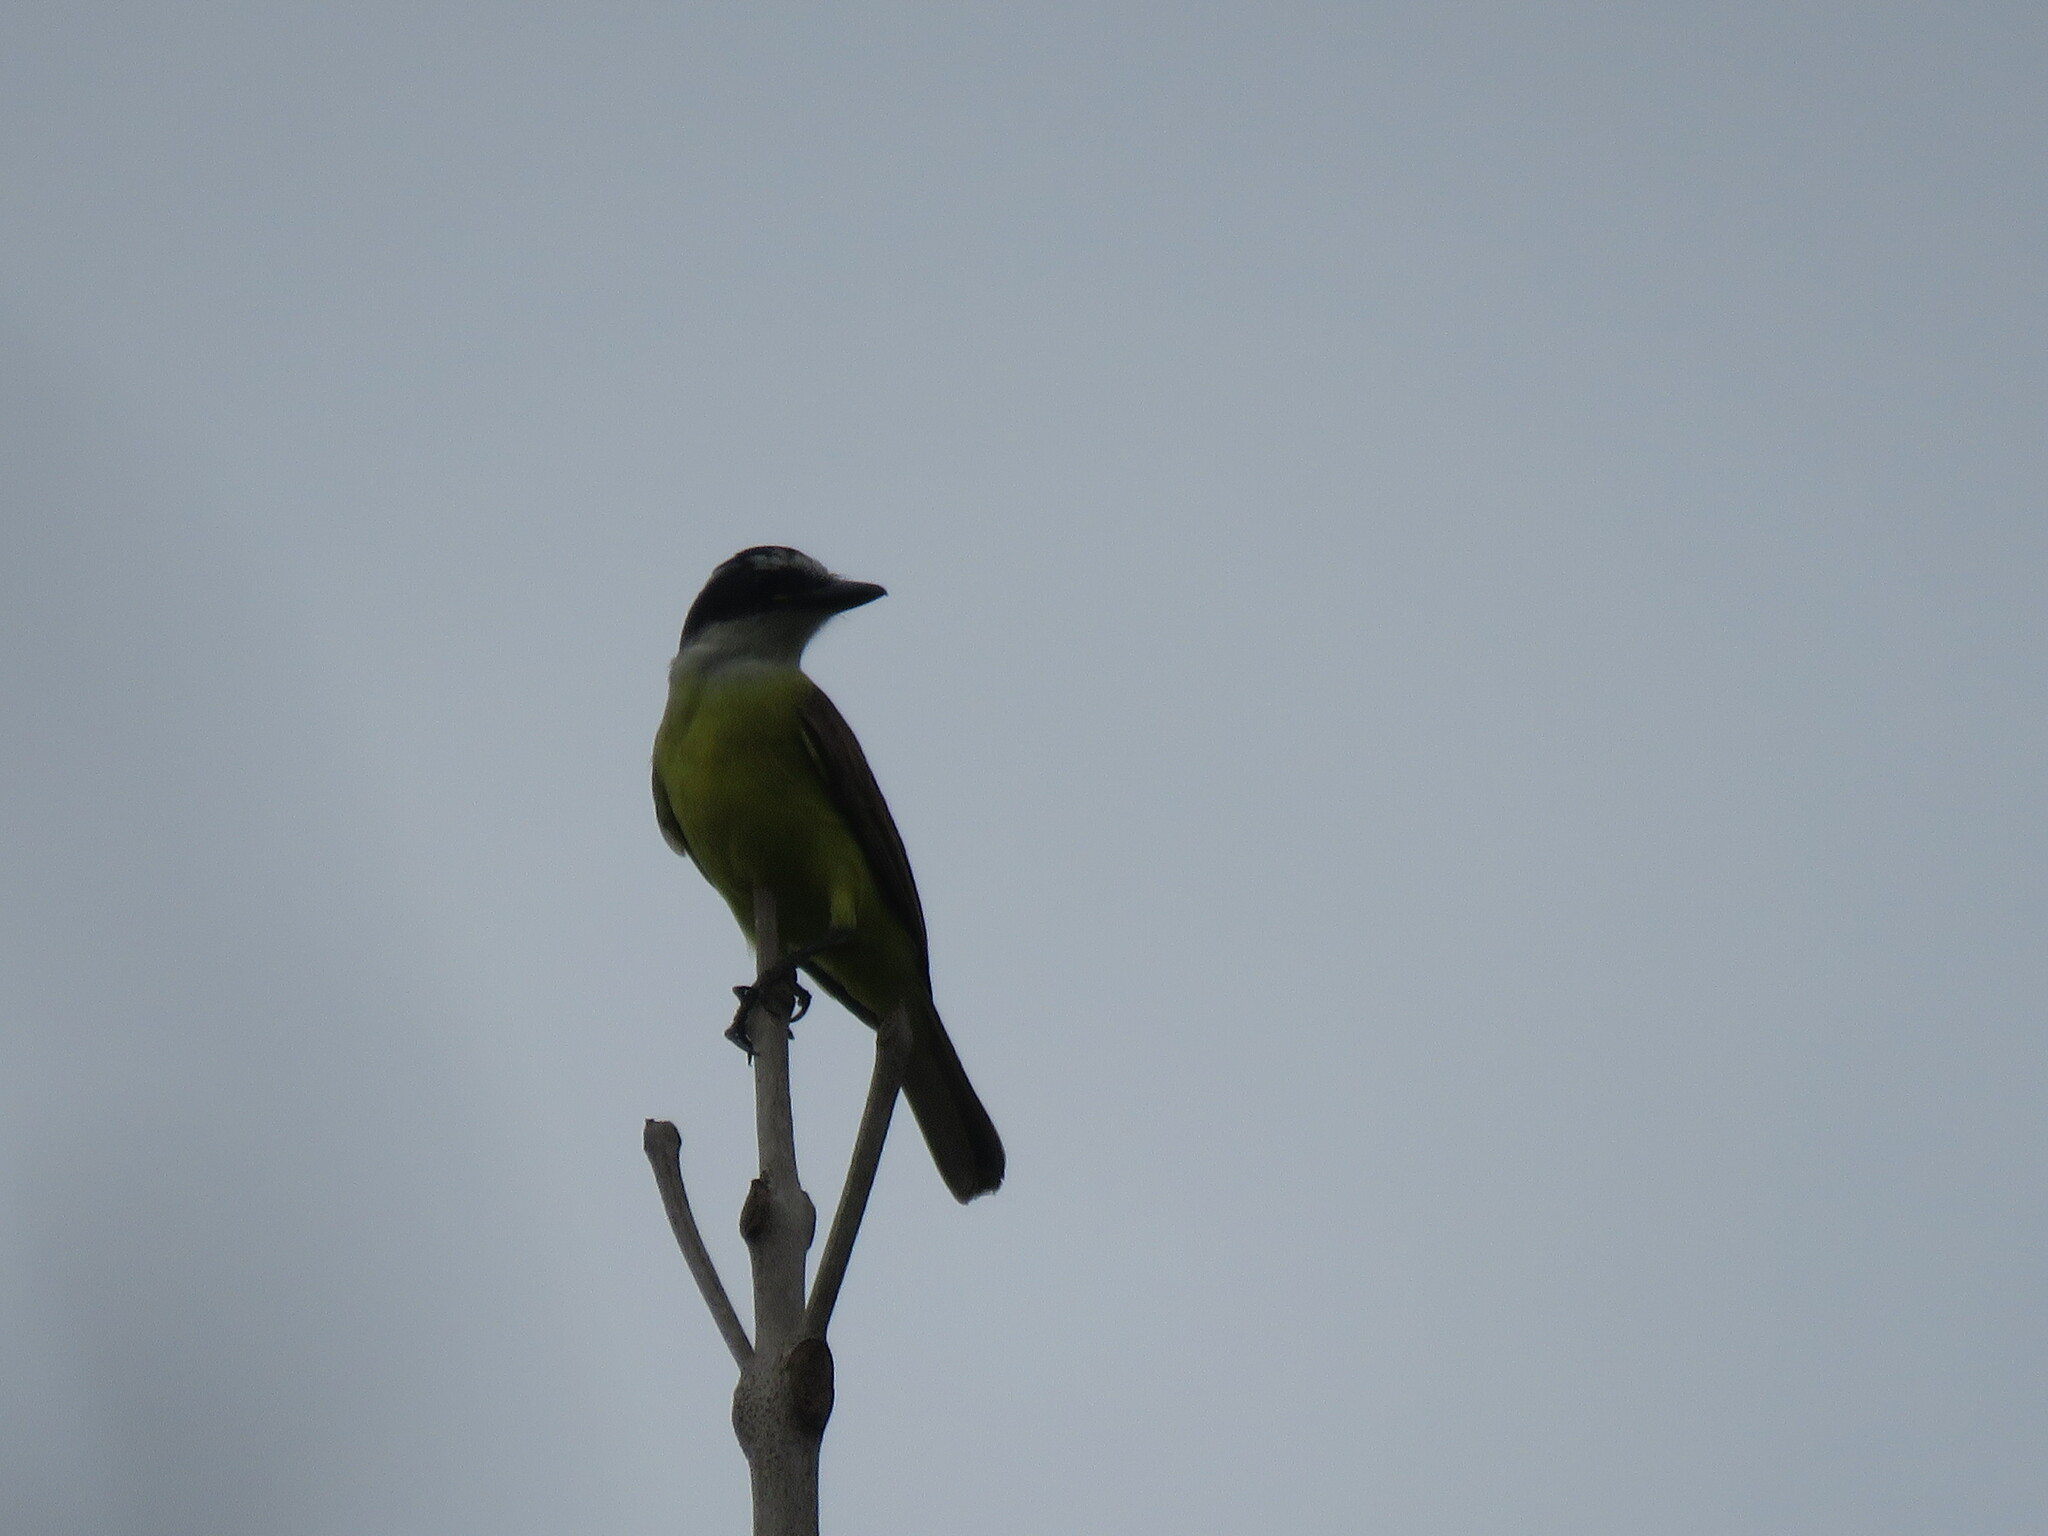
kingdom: Animalia
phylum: Chordata
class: Aves
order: Passeriformes
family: Tyrannidae
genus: Pitangus
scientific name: Pitangus sulphuratus
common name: Great kiskadee
